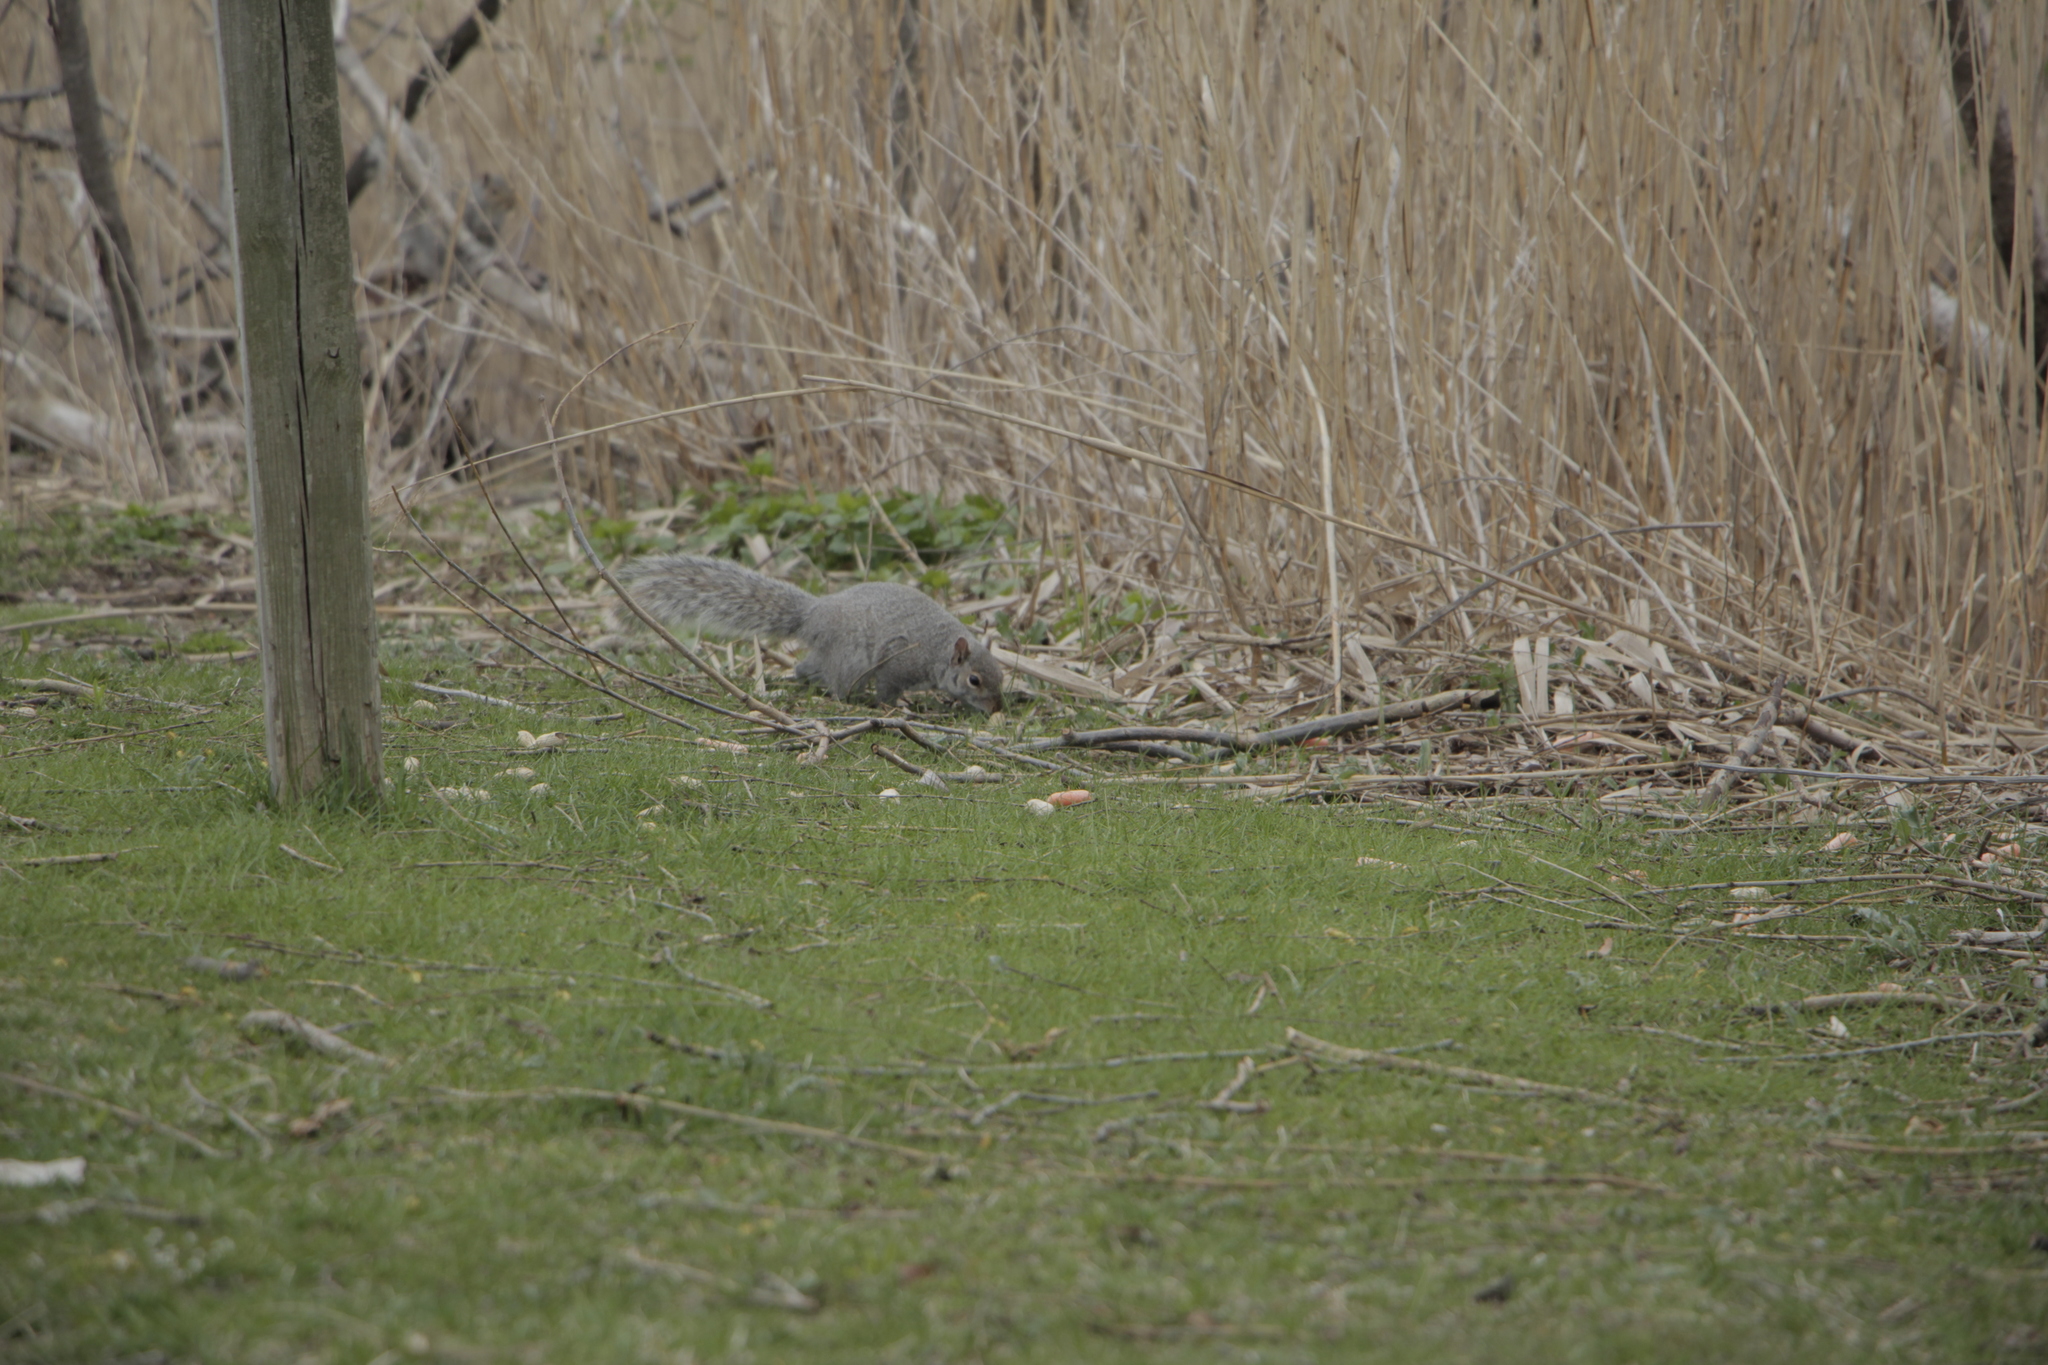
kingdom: Animalia
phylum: Chordata
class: Mammalia
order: Rodentia
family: Sciuridae
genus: Sciurus
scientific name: Sciurus carolinensis
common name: Eastern gray squirrel
